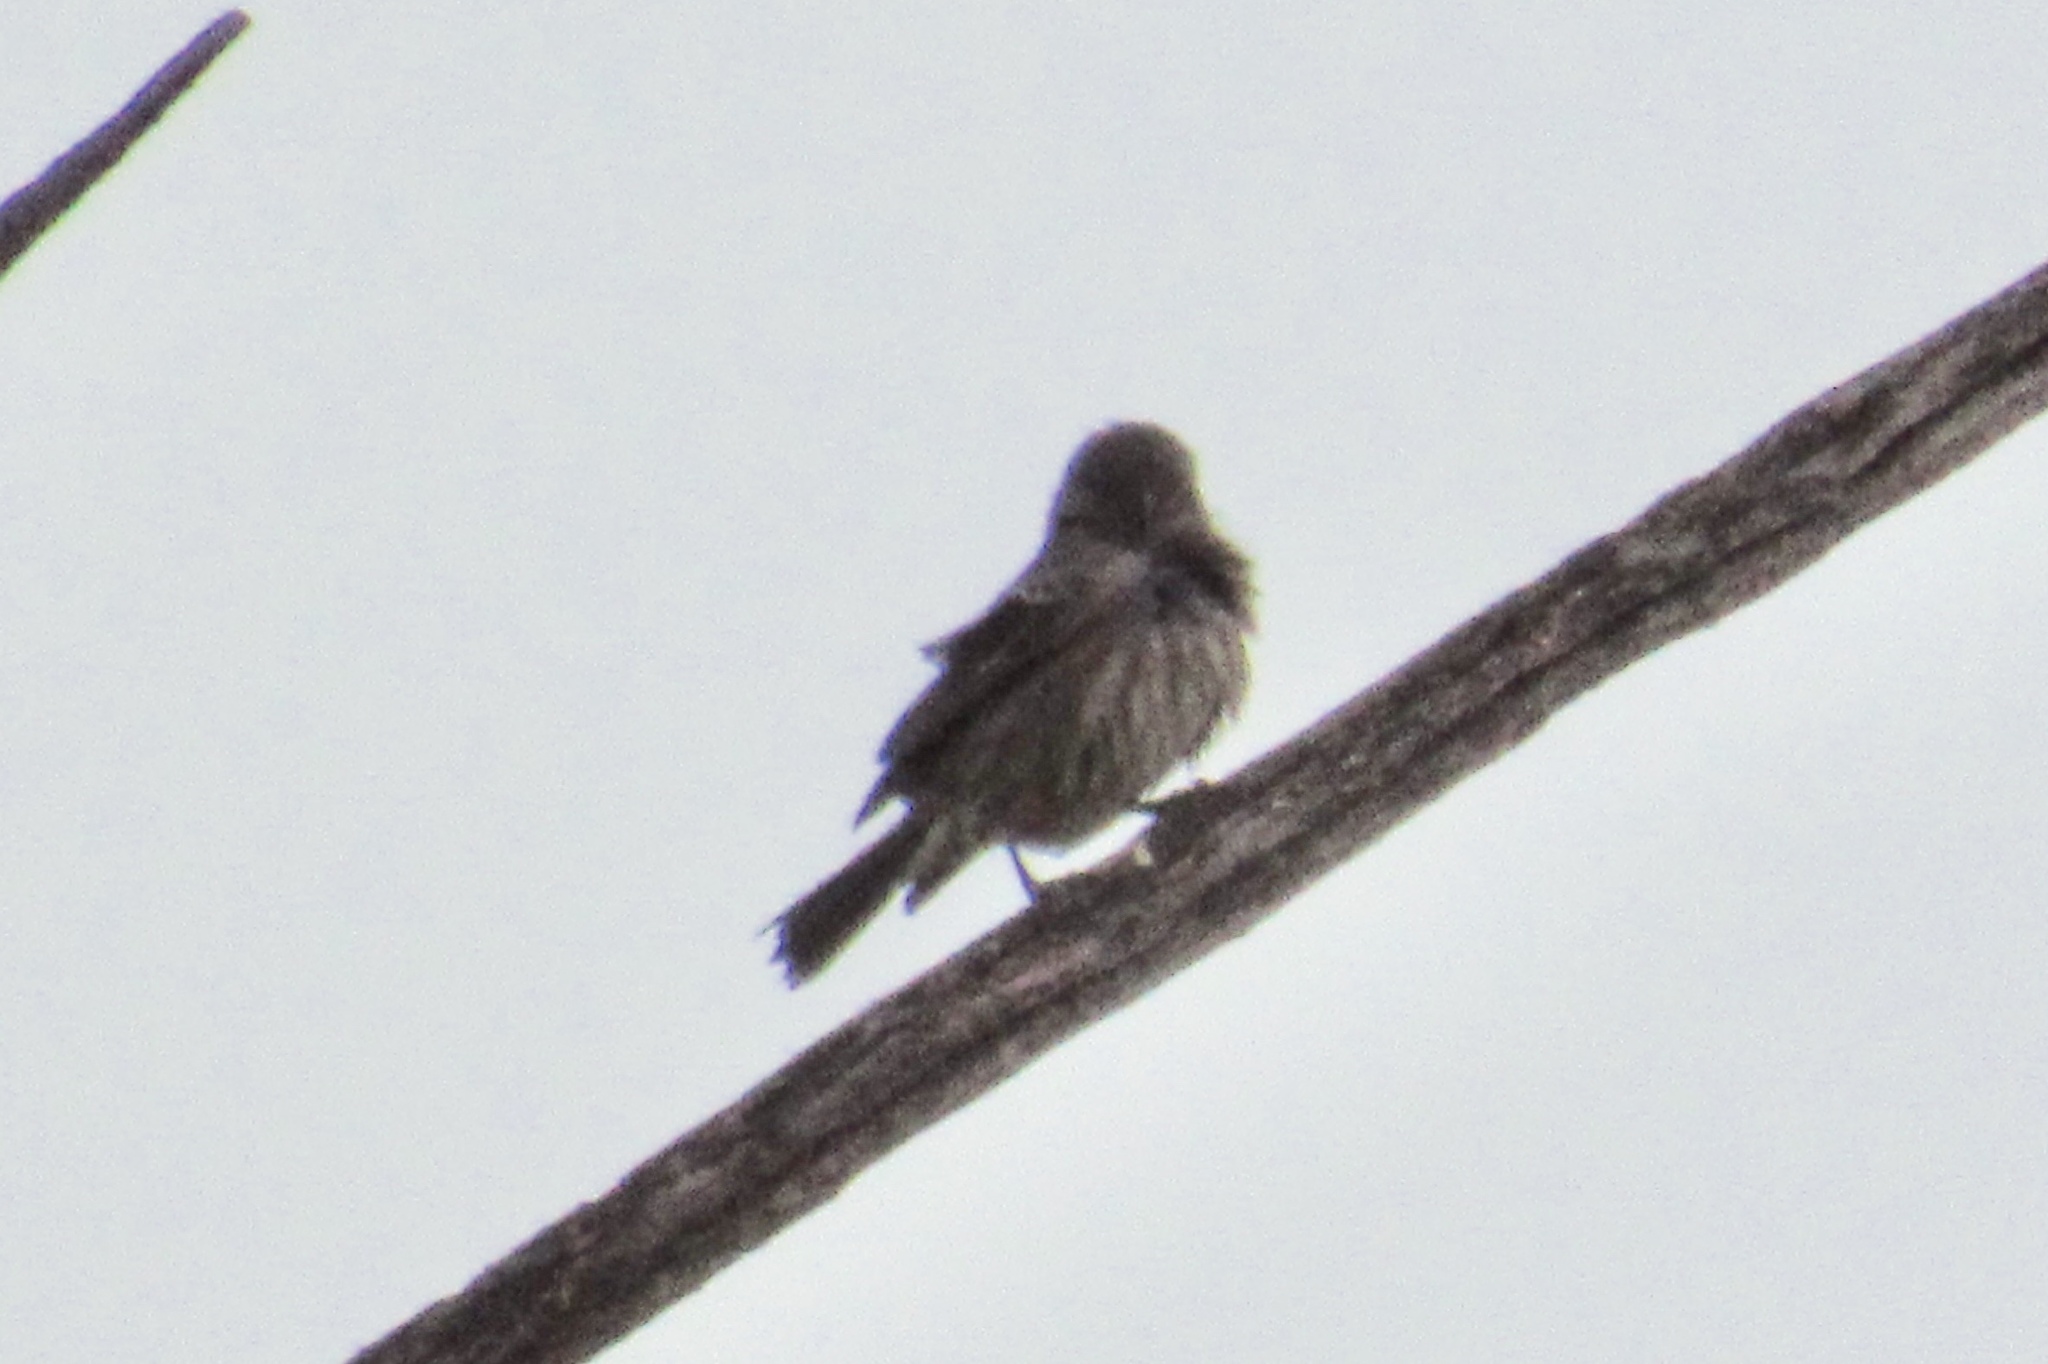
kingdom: Animalia
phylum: Chordata
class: Aves
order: Passeriformes
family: Fringillidae
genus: Haemorhous
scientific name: Haemorhous mexicanus
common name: House finch
